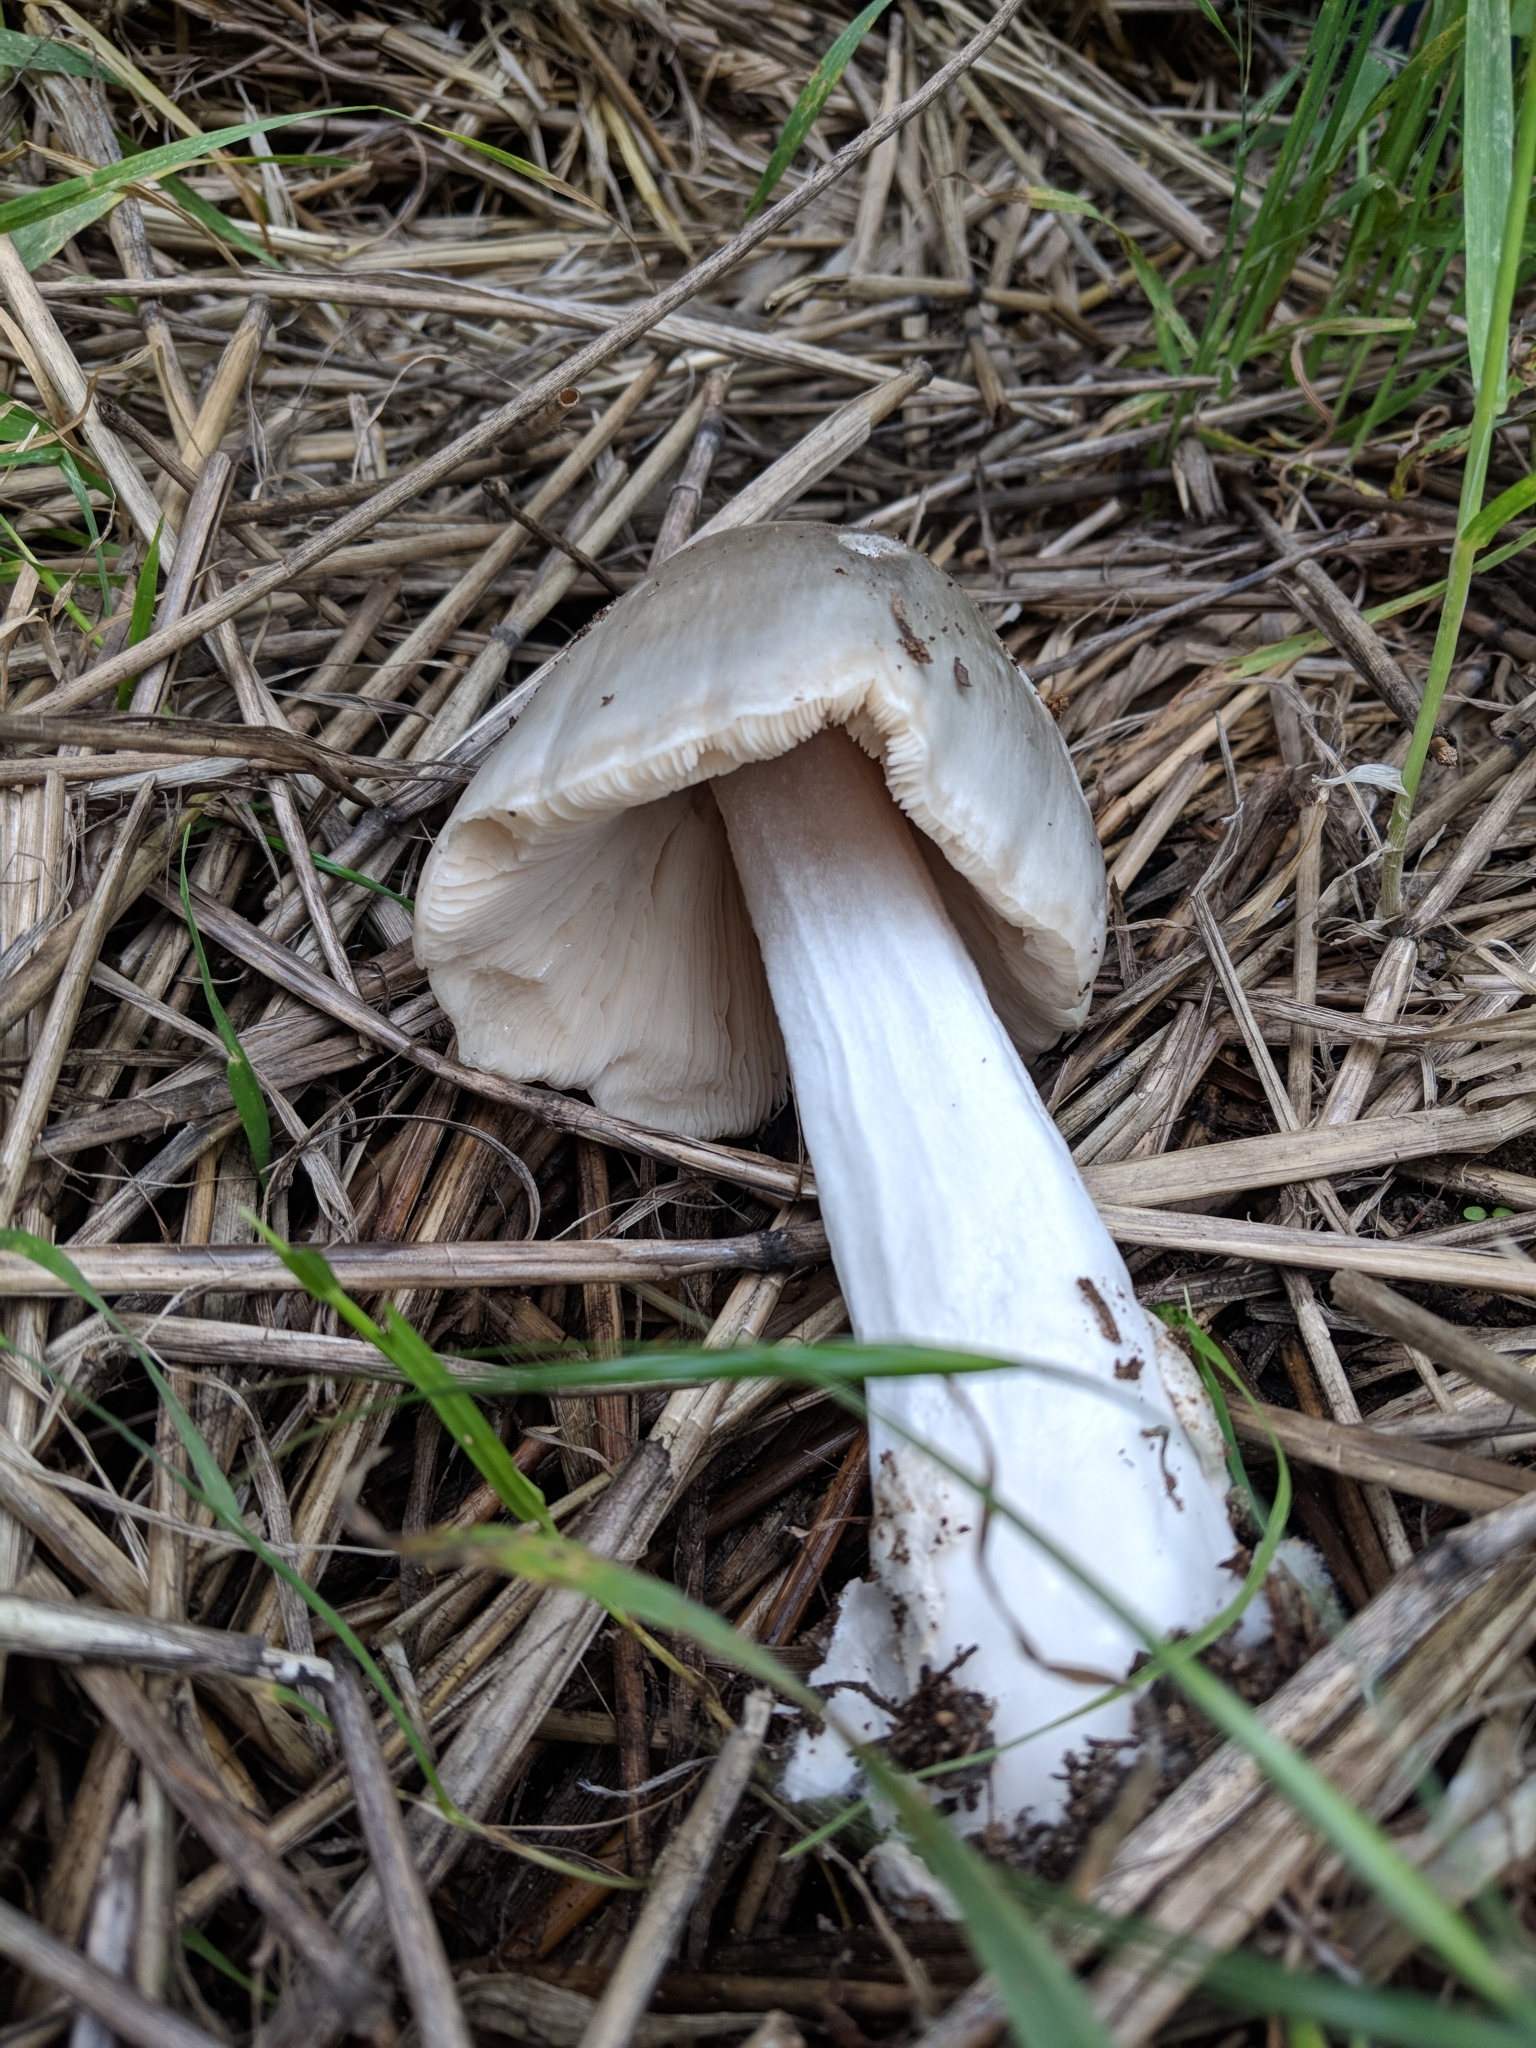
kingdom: Fungi
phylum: Basidiomycota
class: Agaricomycetes
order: Agaricales
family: Pluteaceae
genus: Volvopluteus
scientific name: Volvopluteus gloiocephalus
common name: Stubble rosegill
